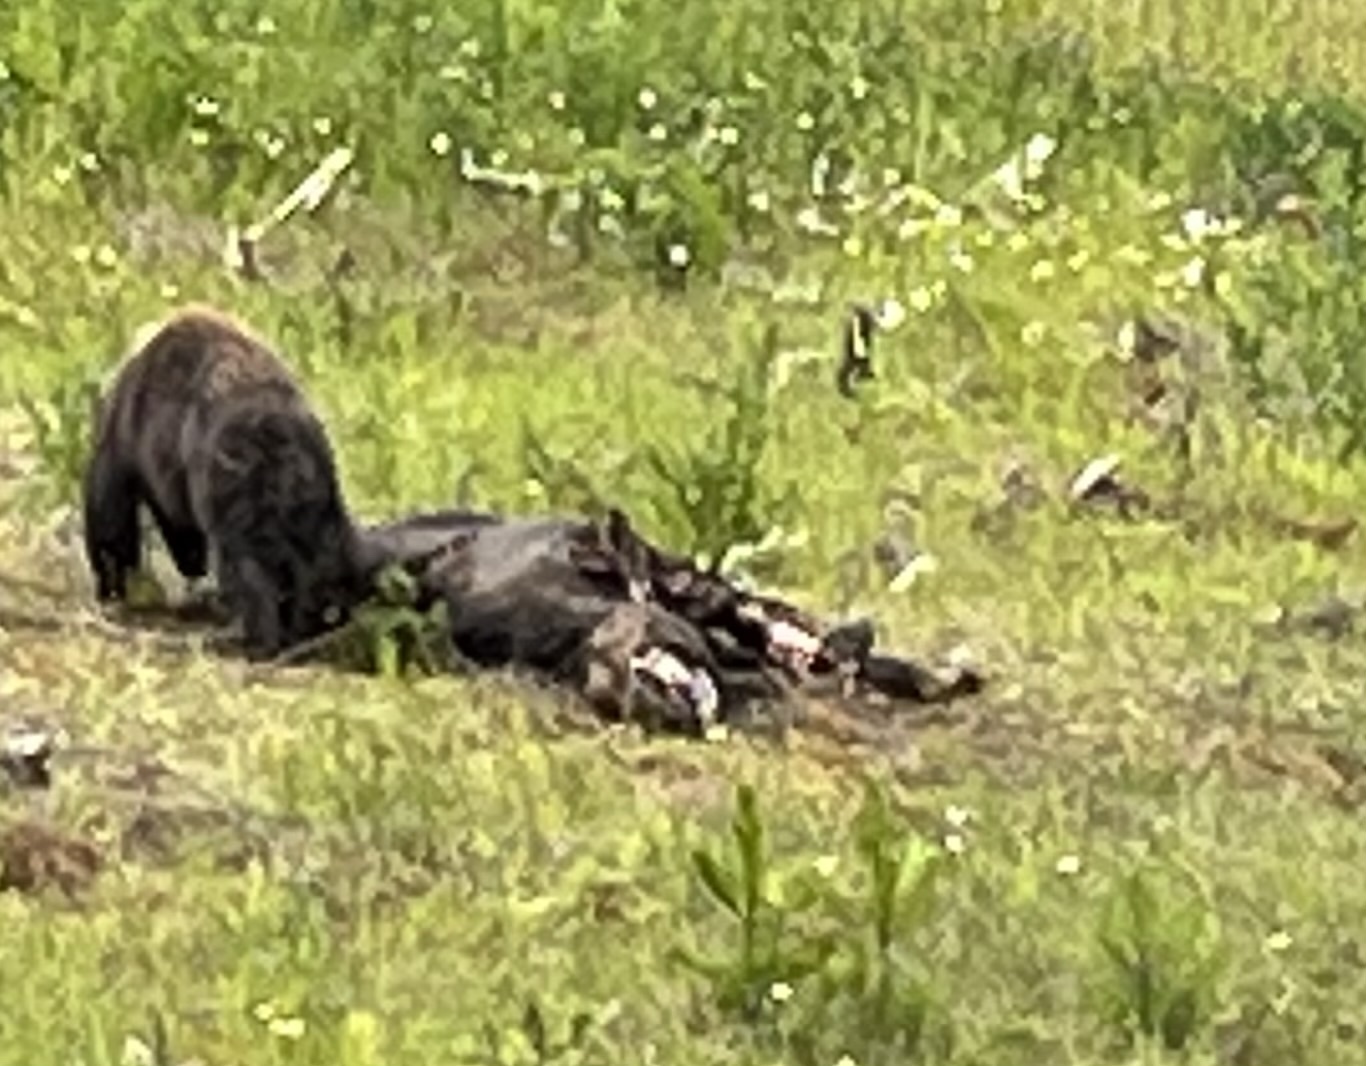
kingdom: Animalia
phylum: Chordata
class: Mammalia
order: Artiodactyla
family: Cervidae
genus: Alces
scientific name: Alces alces
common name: Moose
